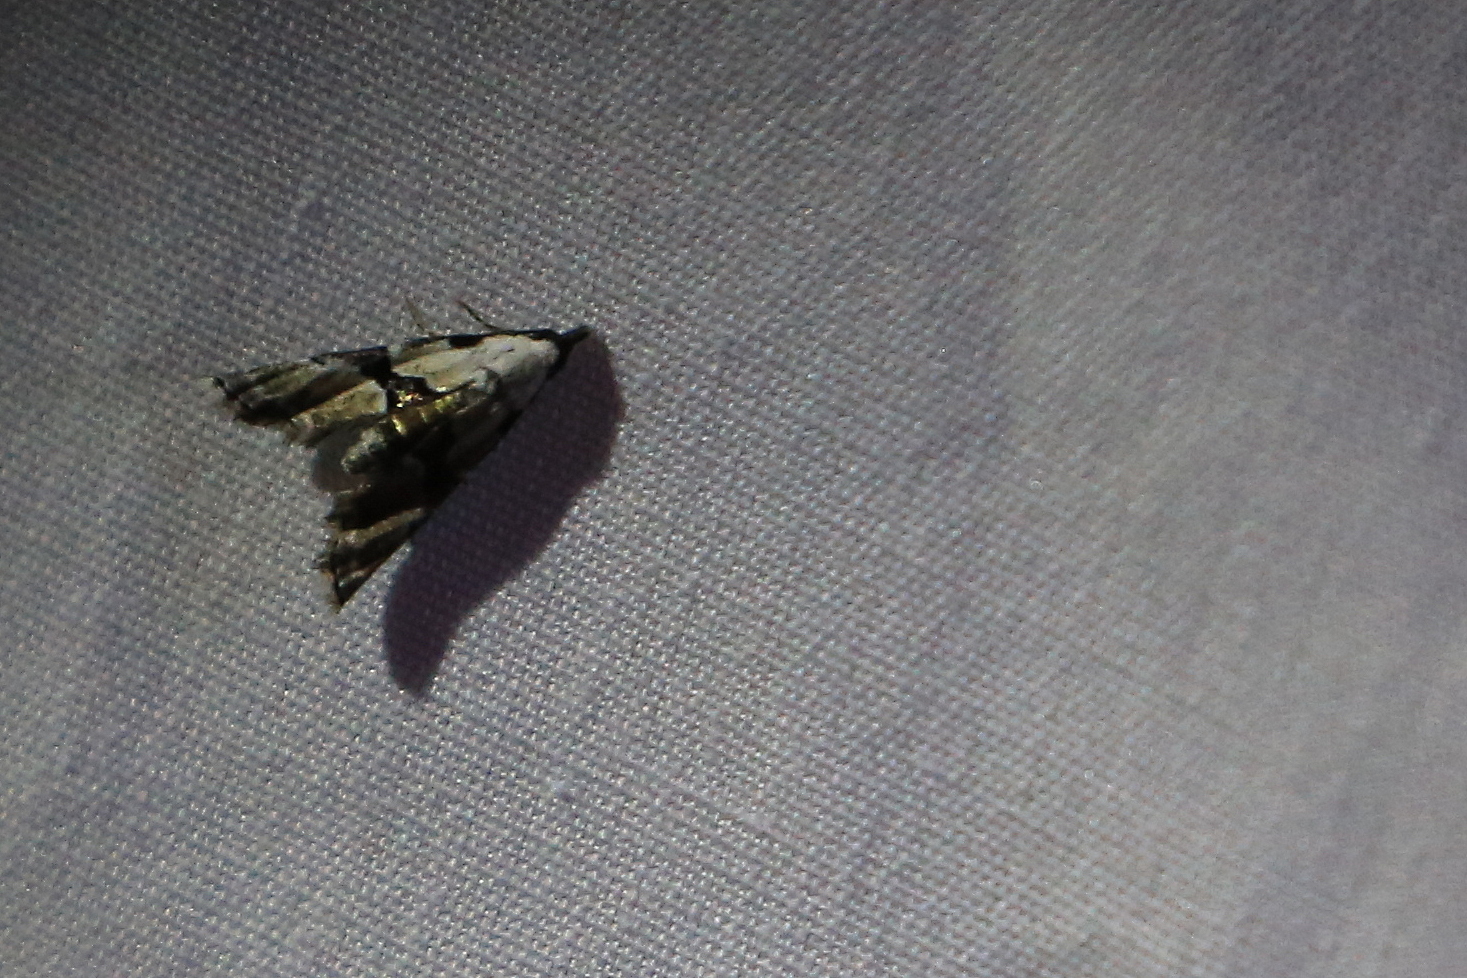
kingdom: Animalia
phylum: Arthropoda
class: Insecta
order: Lepidoptera
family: Noctuidae
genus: Nigetia
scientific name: Nigetia formosalis
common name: Thin-winged owlet
